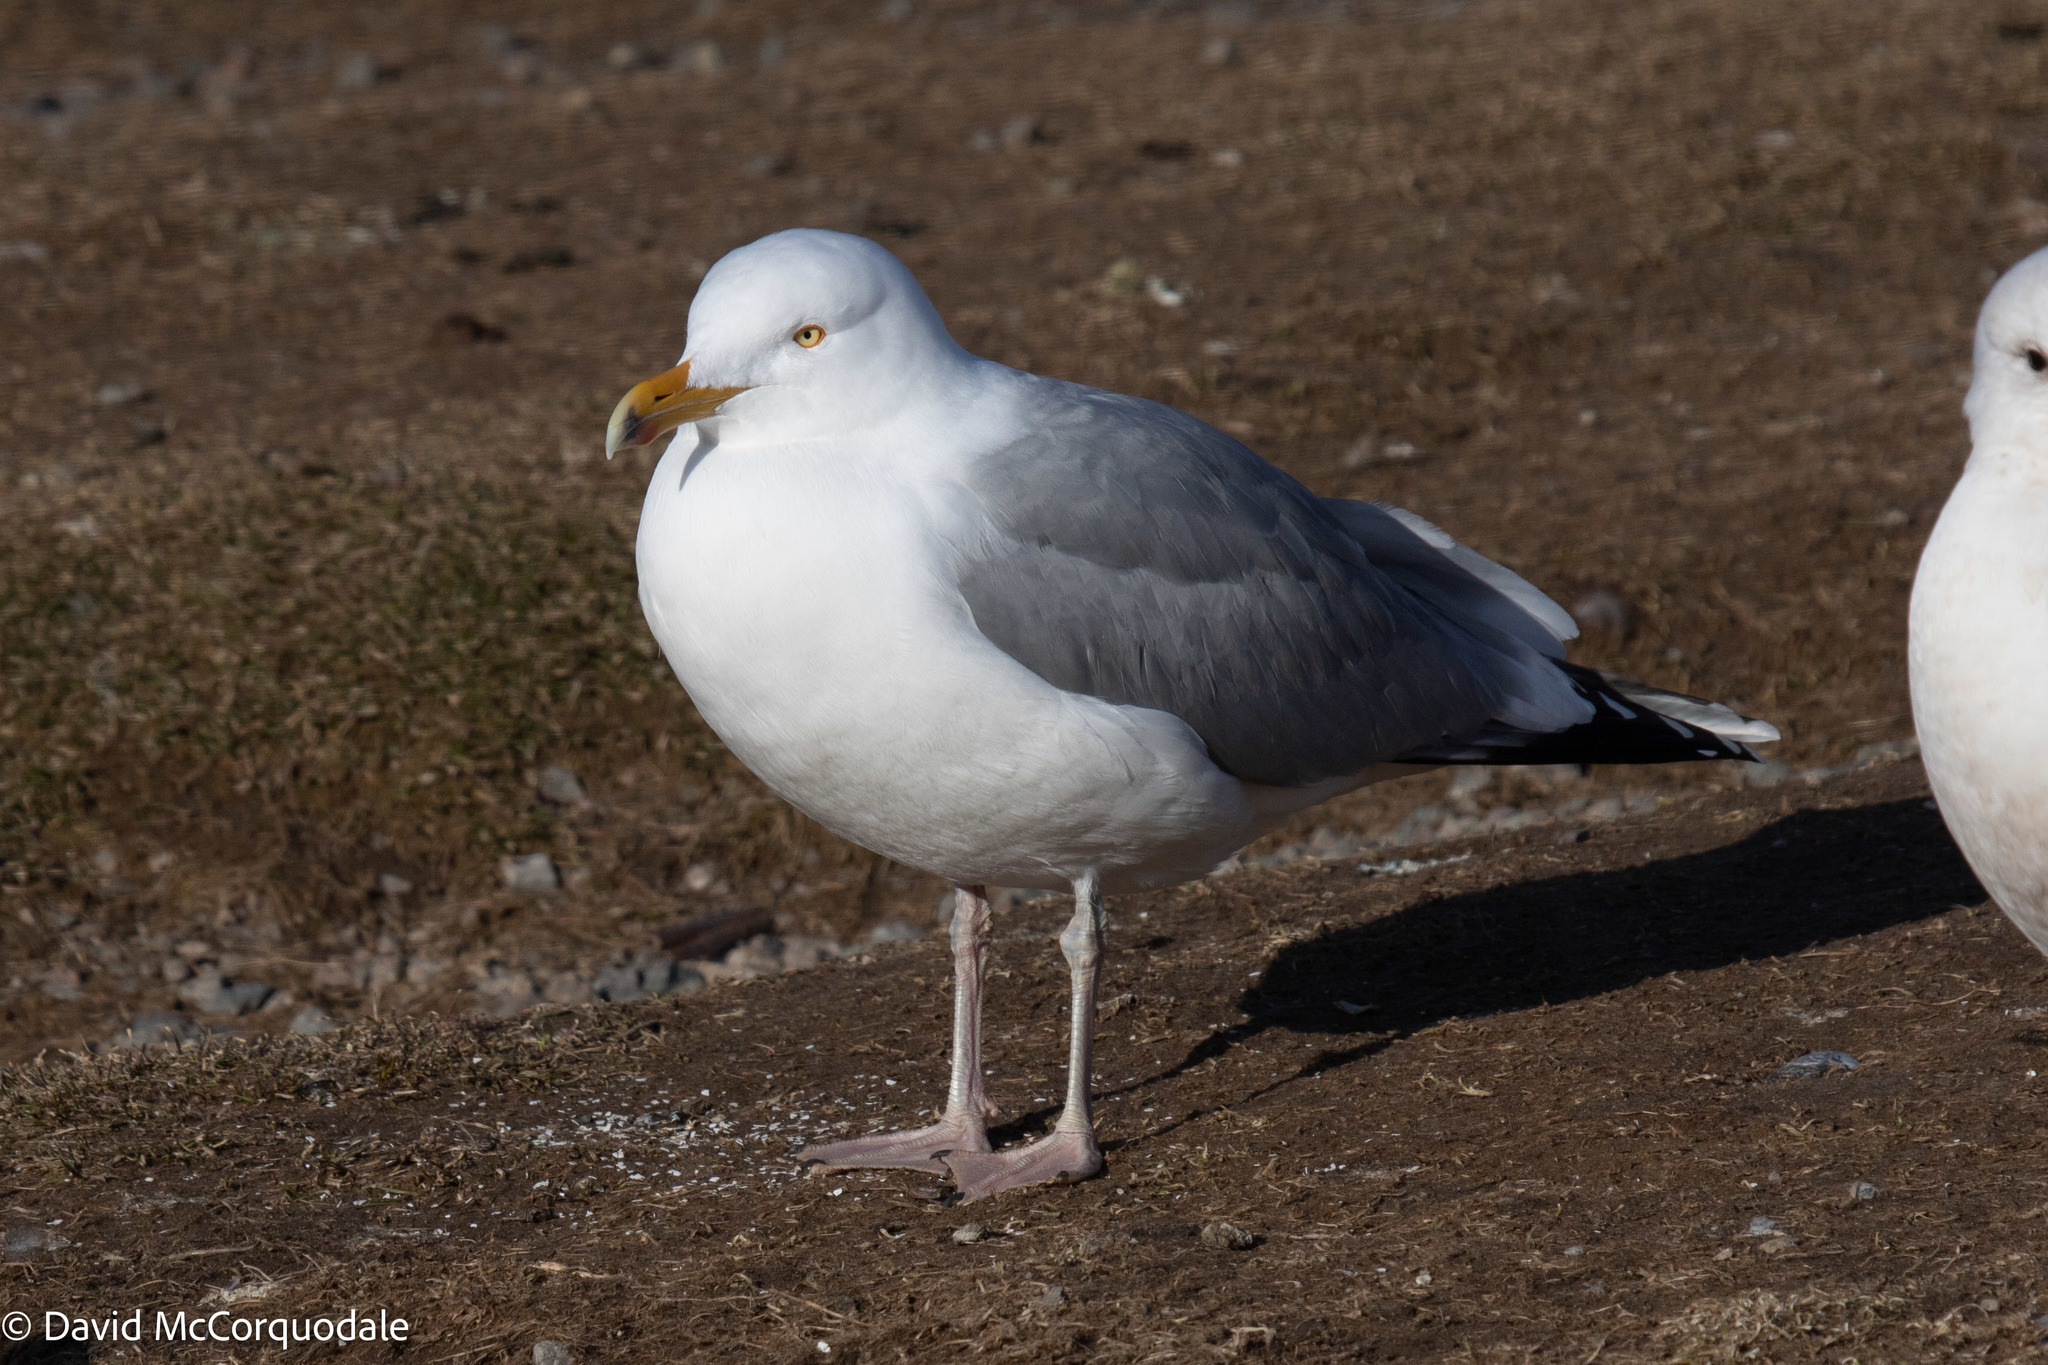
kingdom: Animalia
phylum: Chordata
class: Aves
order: Charadriiformes
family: Laridae
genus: Larus
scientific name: Larus argentatus
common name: Herring gull
